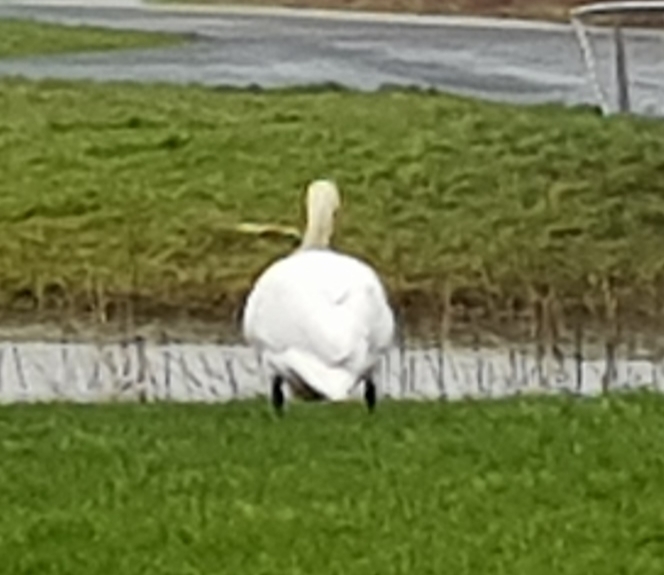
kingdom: Animalia
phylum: Chordata
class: Aves
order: Anseriformes
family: Anatidae
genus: Cygnus
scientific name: Cygnus olor
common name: Mute swan
